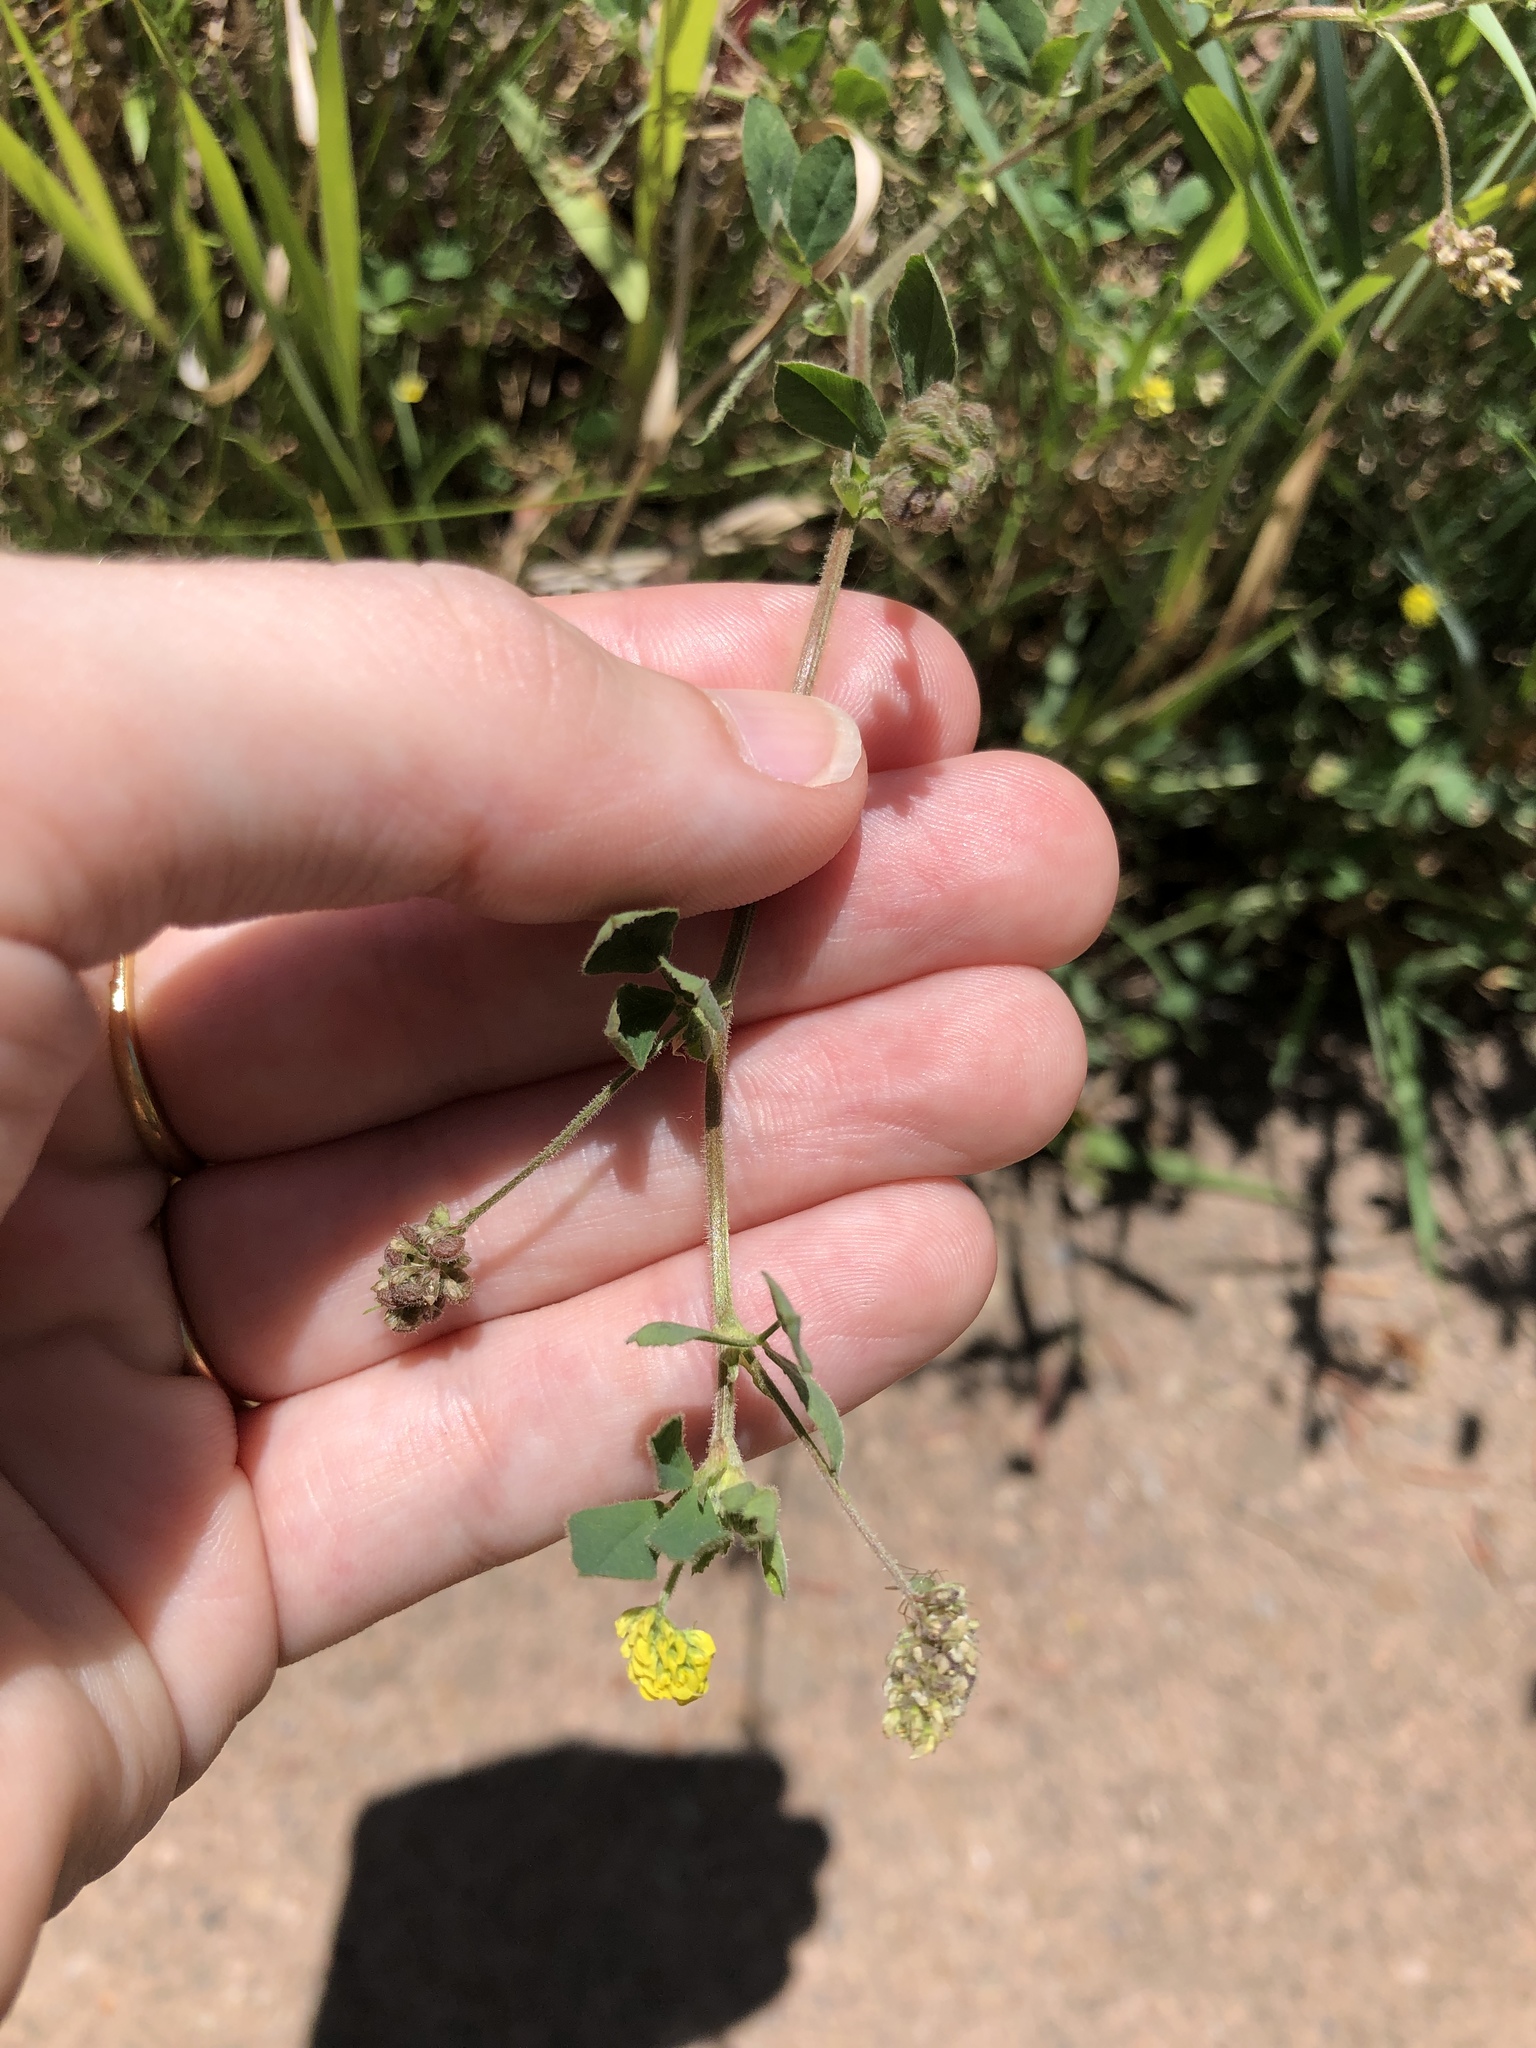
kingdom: Plantae
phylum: Tracheophyta
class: Magnoliopsida
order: Fabales
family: Fabaceae
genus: Medicago
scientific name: Medicago lupulina
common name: Black medick
